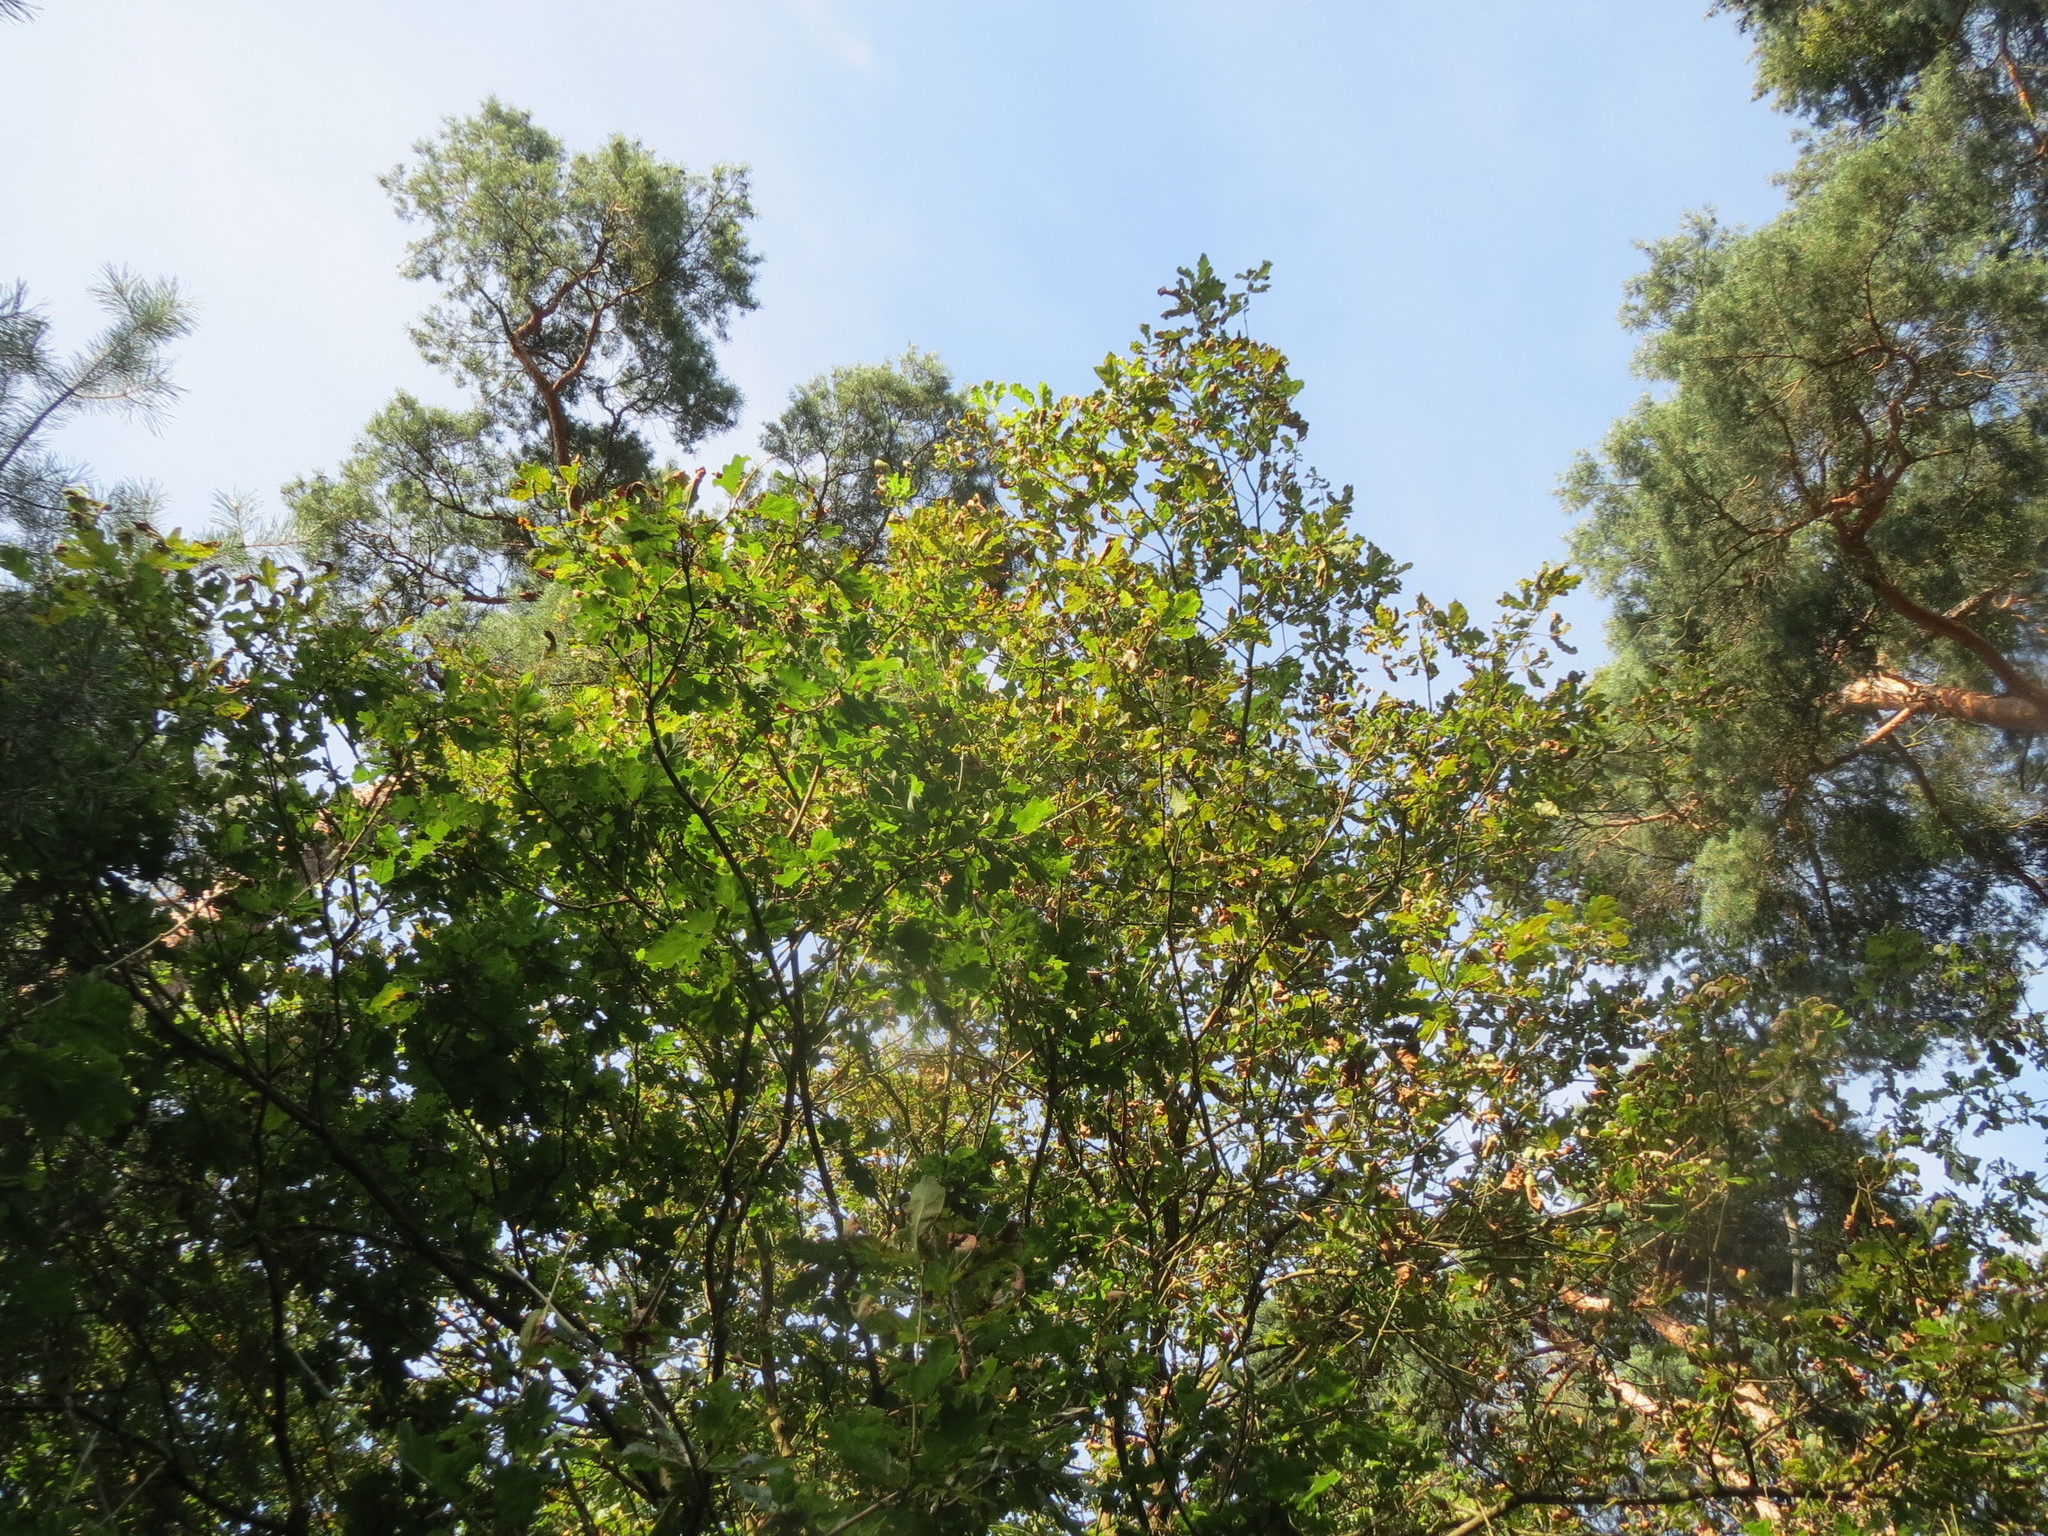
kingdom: Plantae
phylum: Tracheophyta
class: Magnoliopsida
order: Fagales
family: Fagaceae
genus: Quercus
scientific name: Quercus robur
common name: Pedunculate oak
